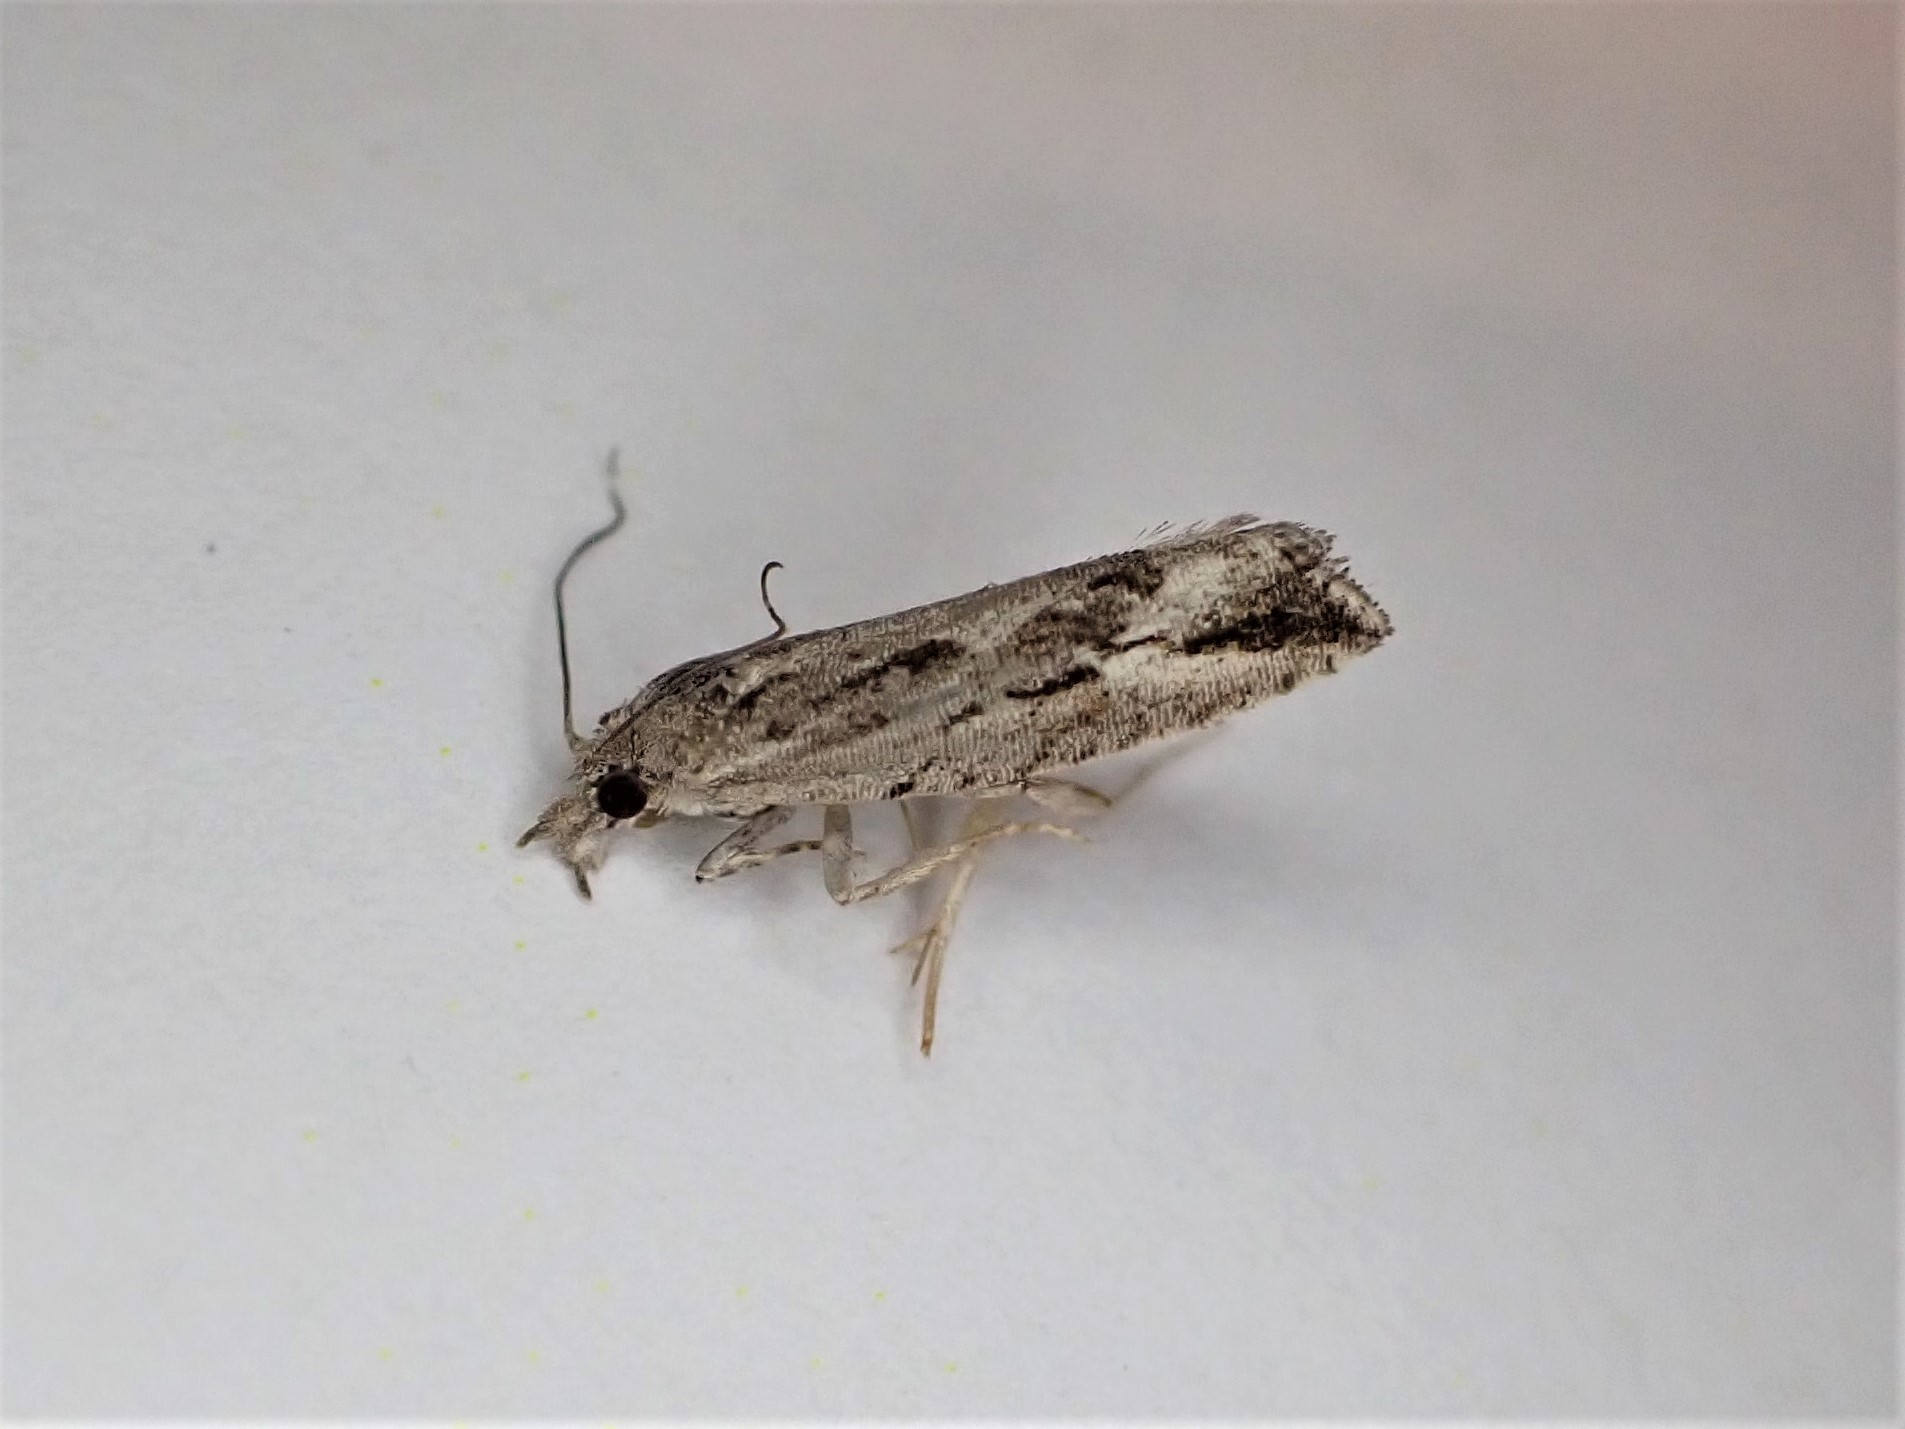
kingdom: Animalia
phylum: Arthropoda
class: Insecta
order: Lepidoptera
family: Tortricidae
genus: Strepsicrates
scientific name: Strepsicrates ejectana
